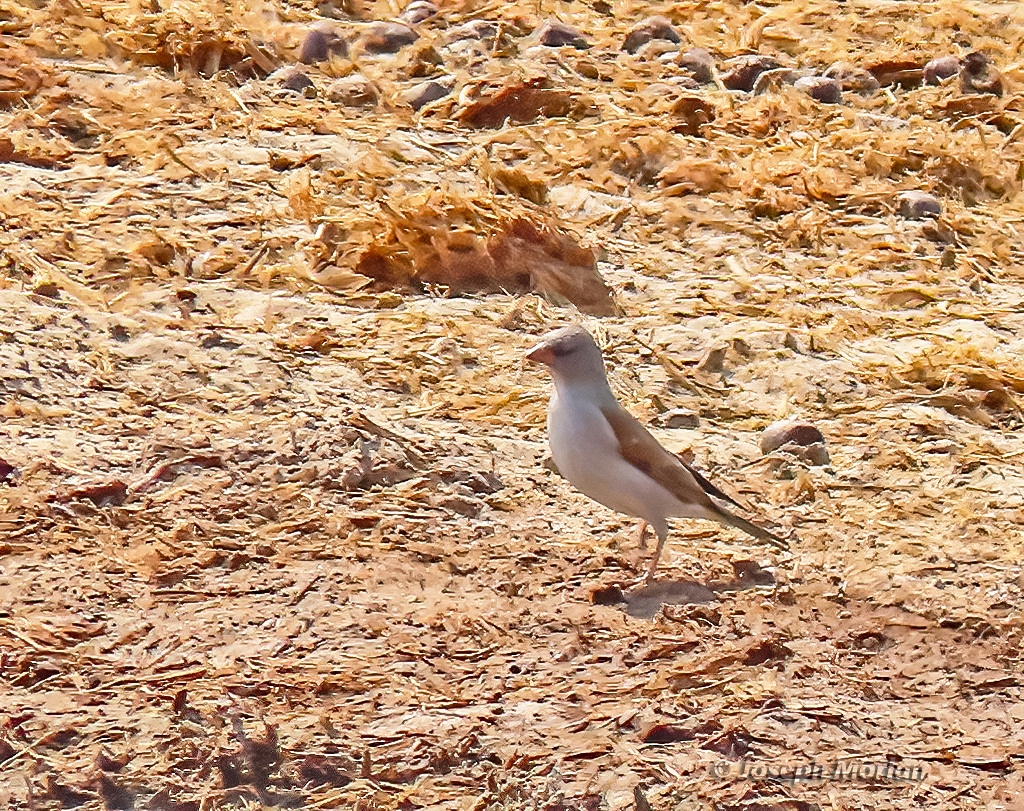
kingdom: Animalia
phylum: Chordata
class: Aves
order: Passeriformes
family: Passeridae
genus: Passer
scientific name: Passer diffusus
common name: Southern grey-headed sparrow
